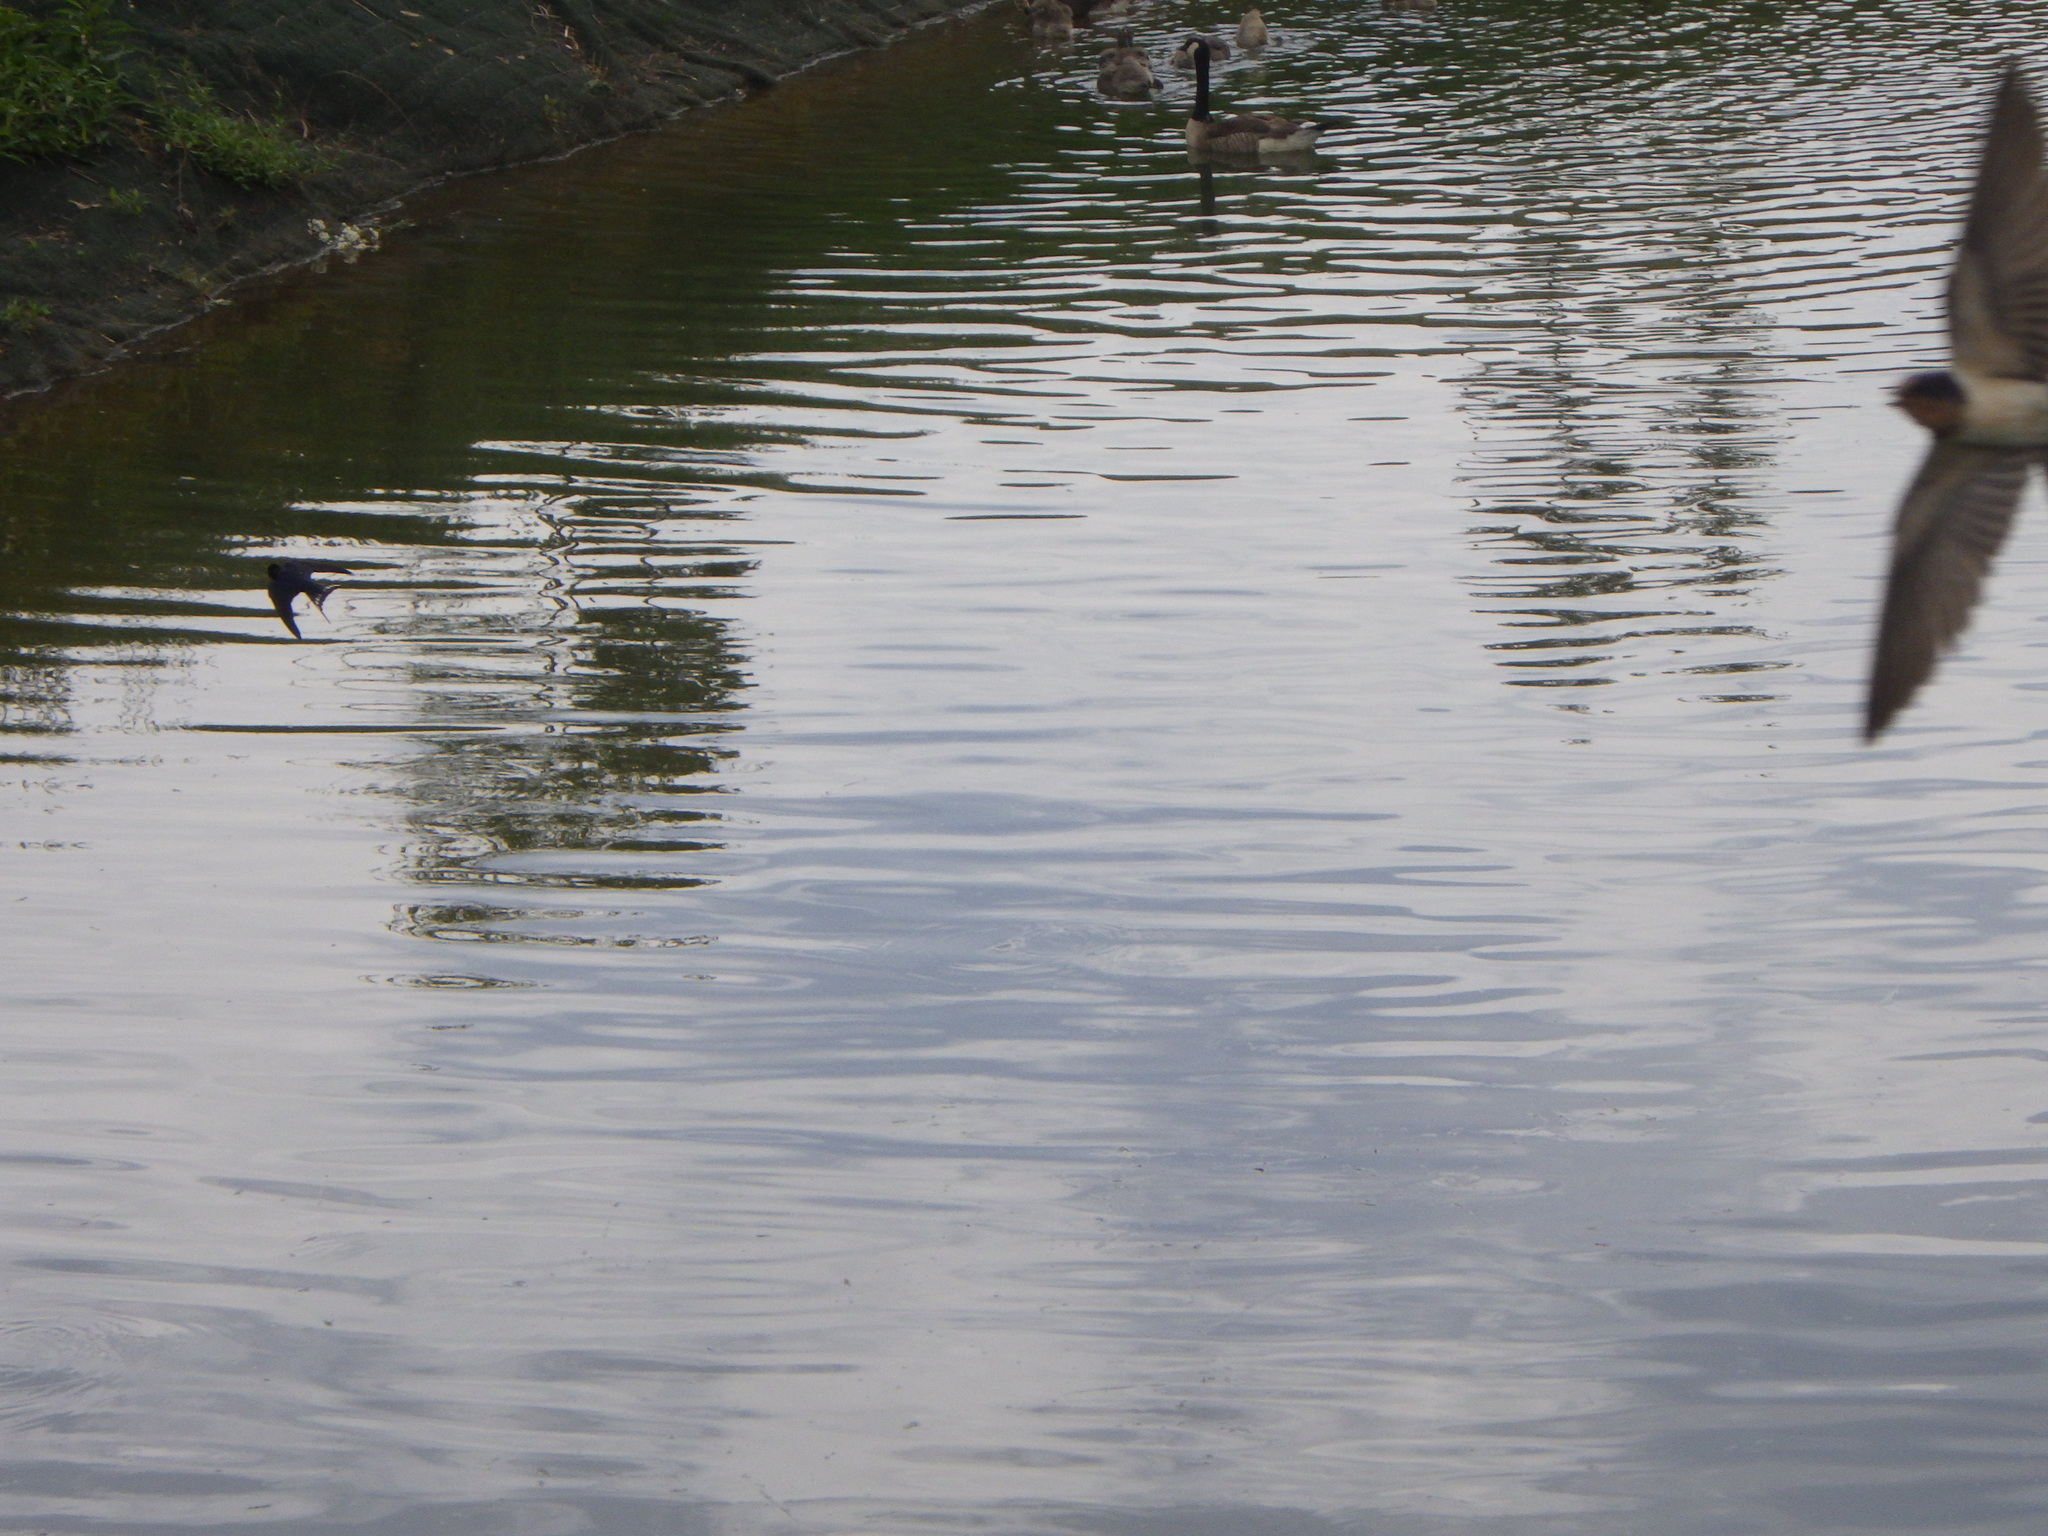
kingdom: Animalia
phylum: Chordata
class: Aves
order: Passeriformes
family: Hirundinidae
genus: Hirundo
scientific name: Hirundo rustica
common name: Barn swallow
